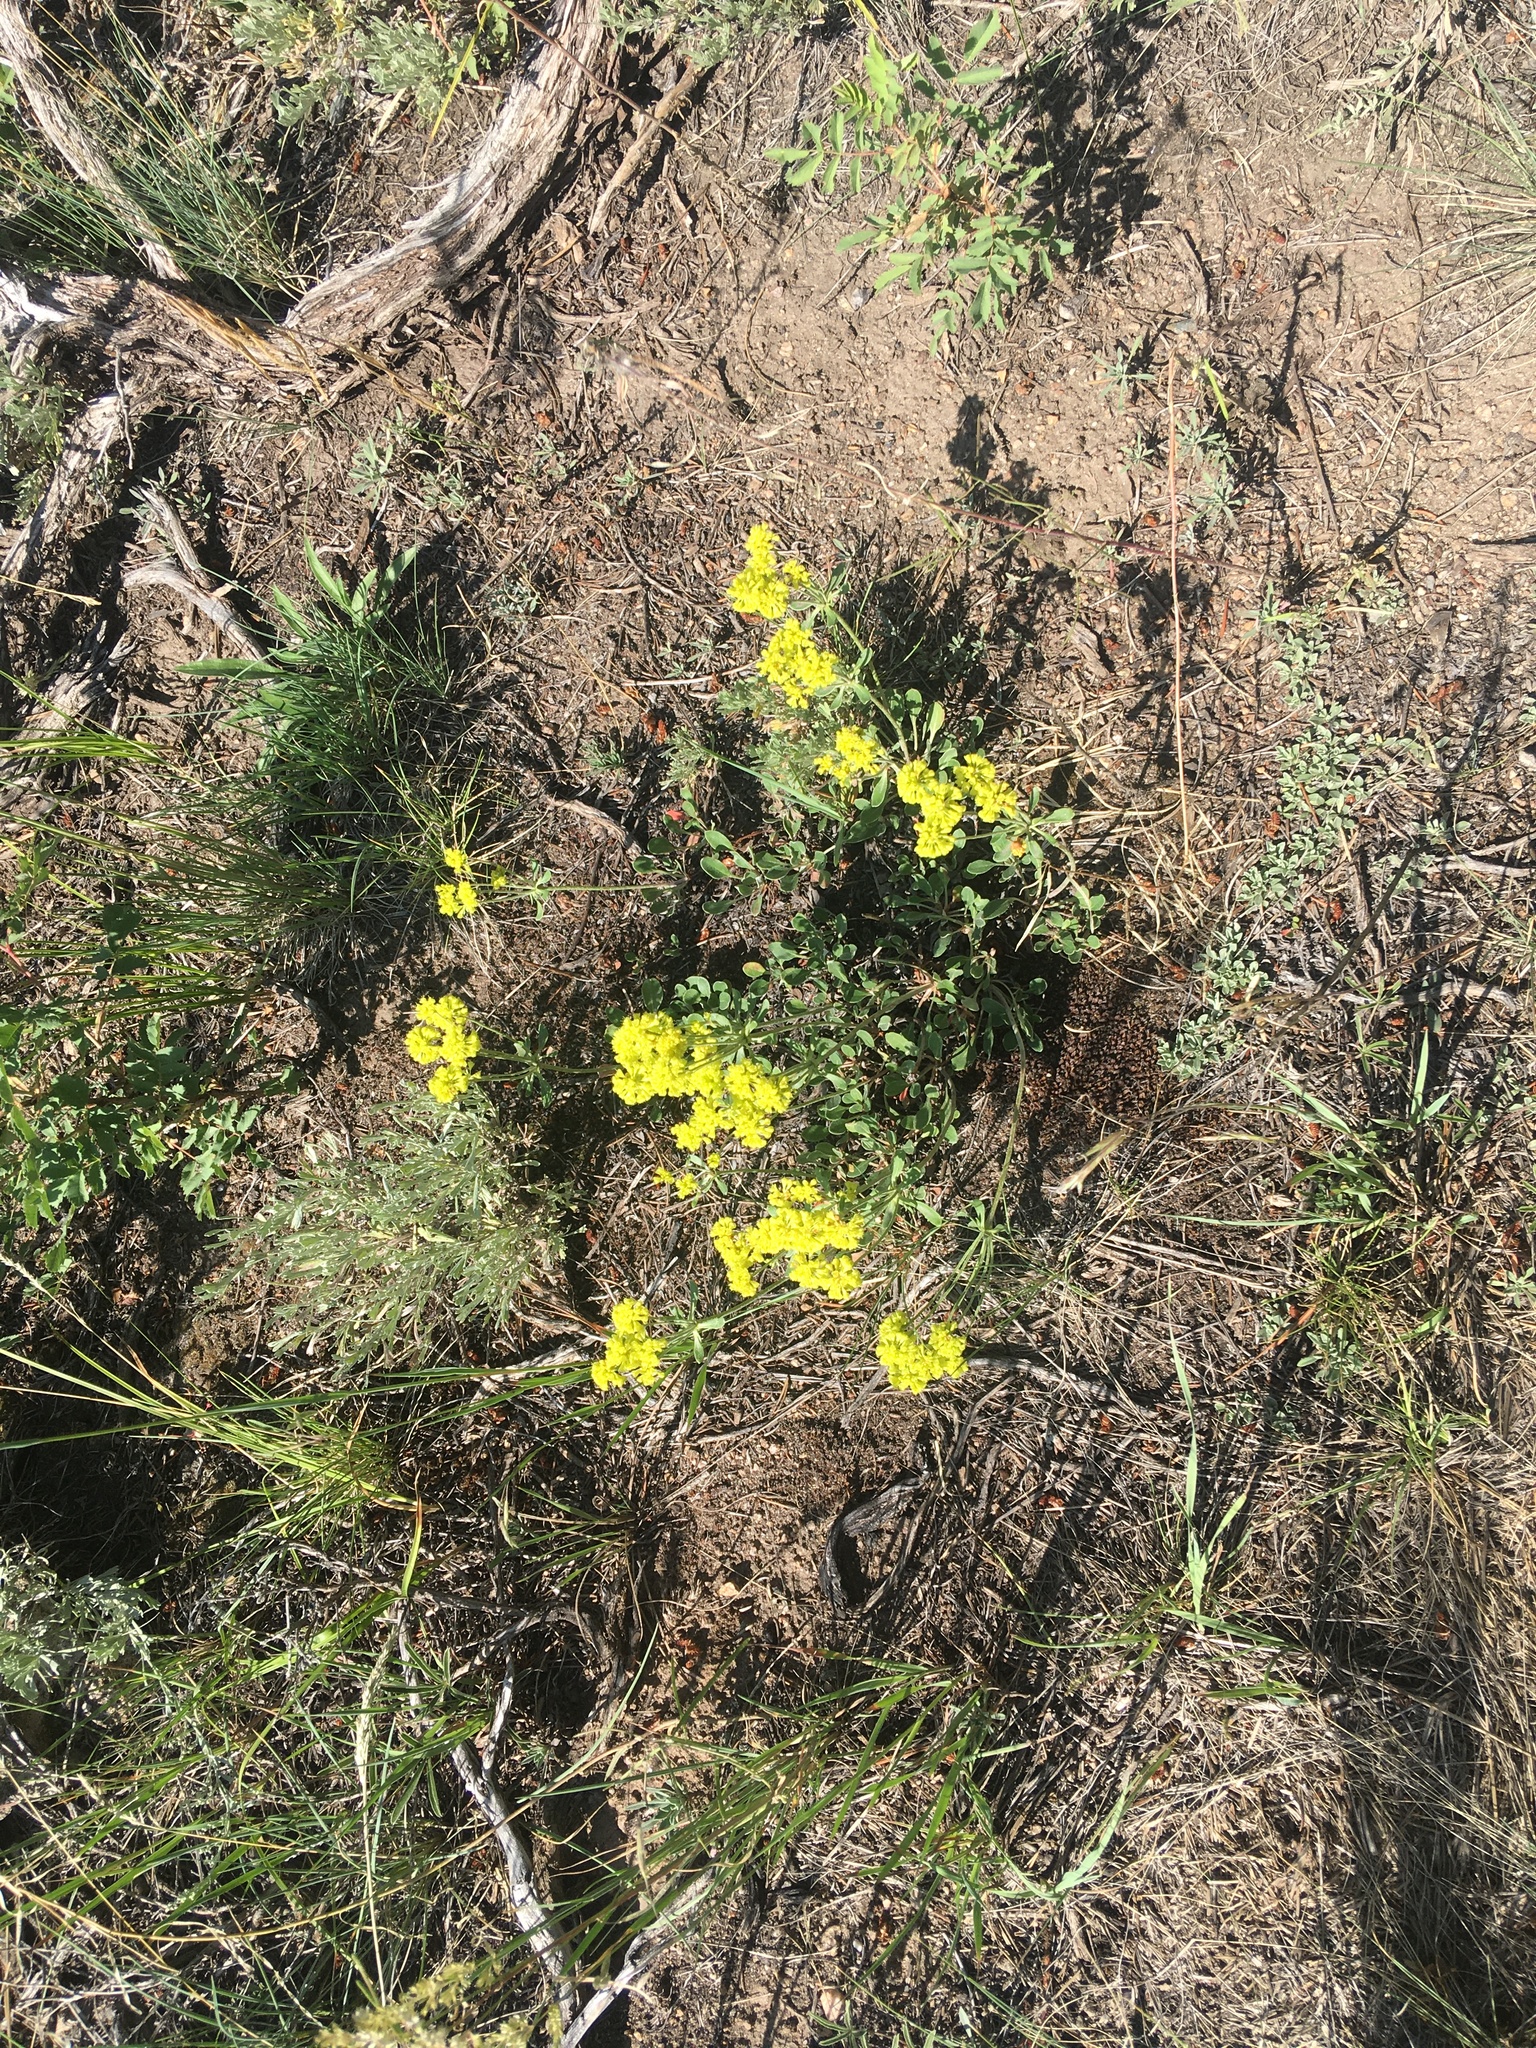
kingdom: Plantae
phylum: Tracheophyta
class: Magnoliopsida
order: Caryophyllales
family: Polygonaceae
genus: Eriogonum
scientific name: Eriogonum umbellatum
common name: Sulfur-buckwheat
